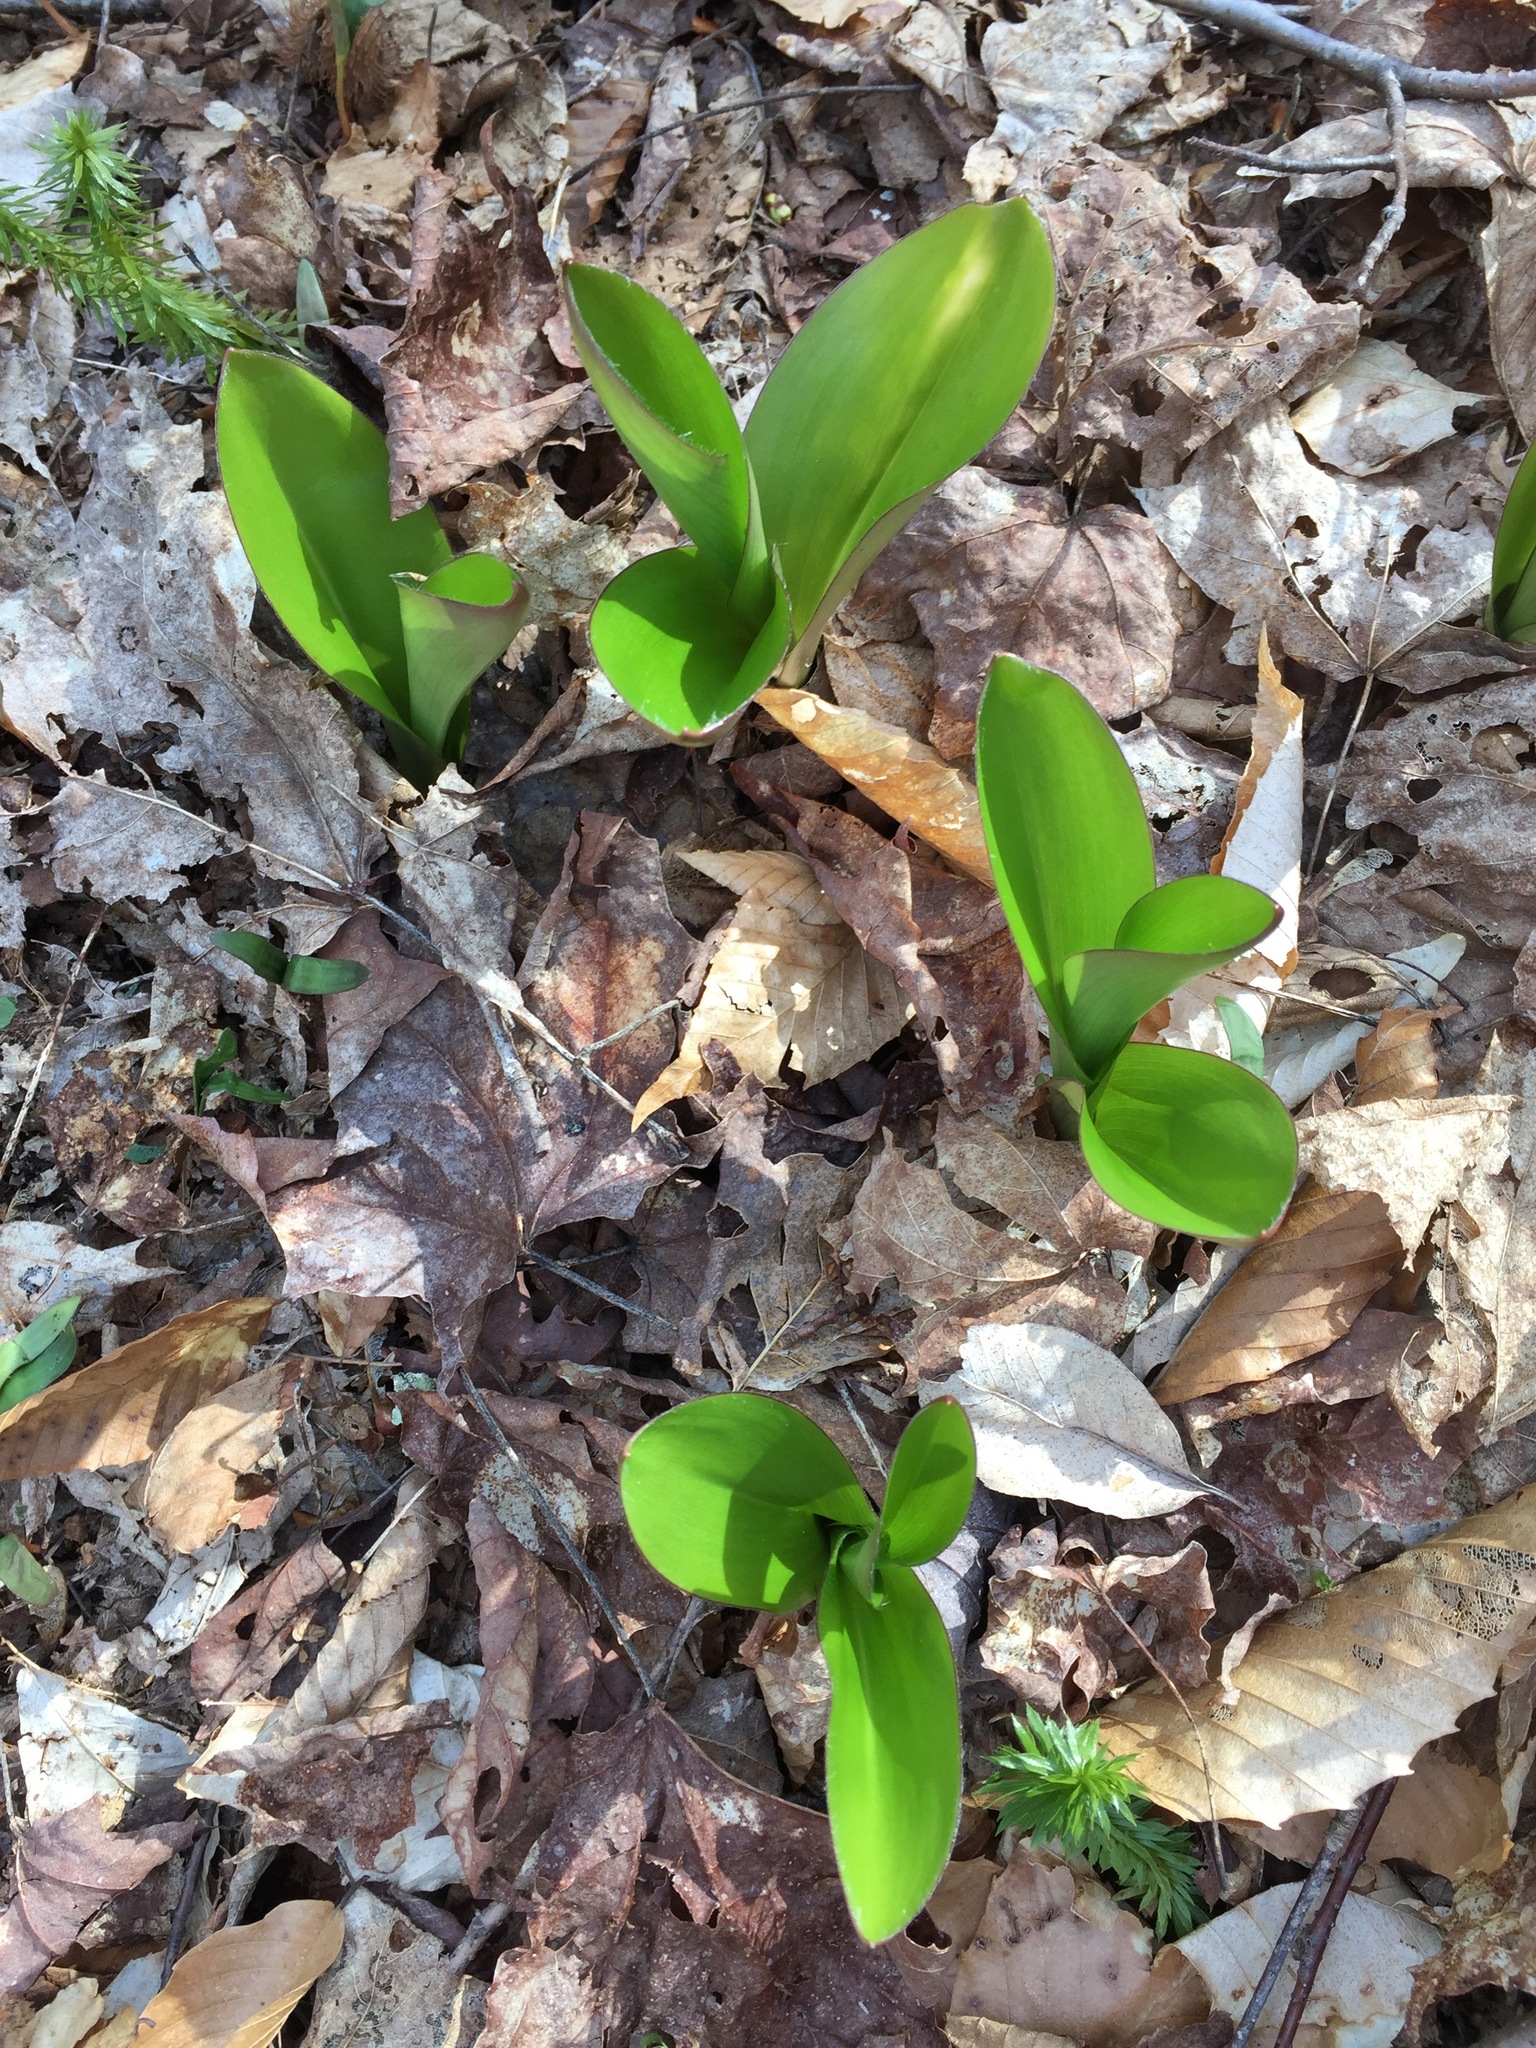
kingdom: Plantae
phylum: Tracheophyta
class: Liliopsida
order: Liliales
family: Liliaceae
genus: Clintonia
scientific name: Clintonia borealis
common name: Yellow clintonia
